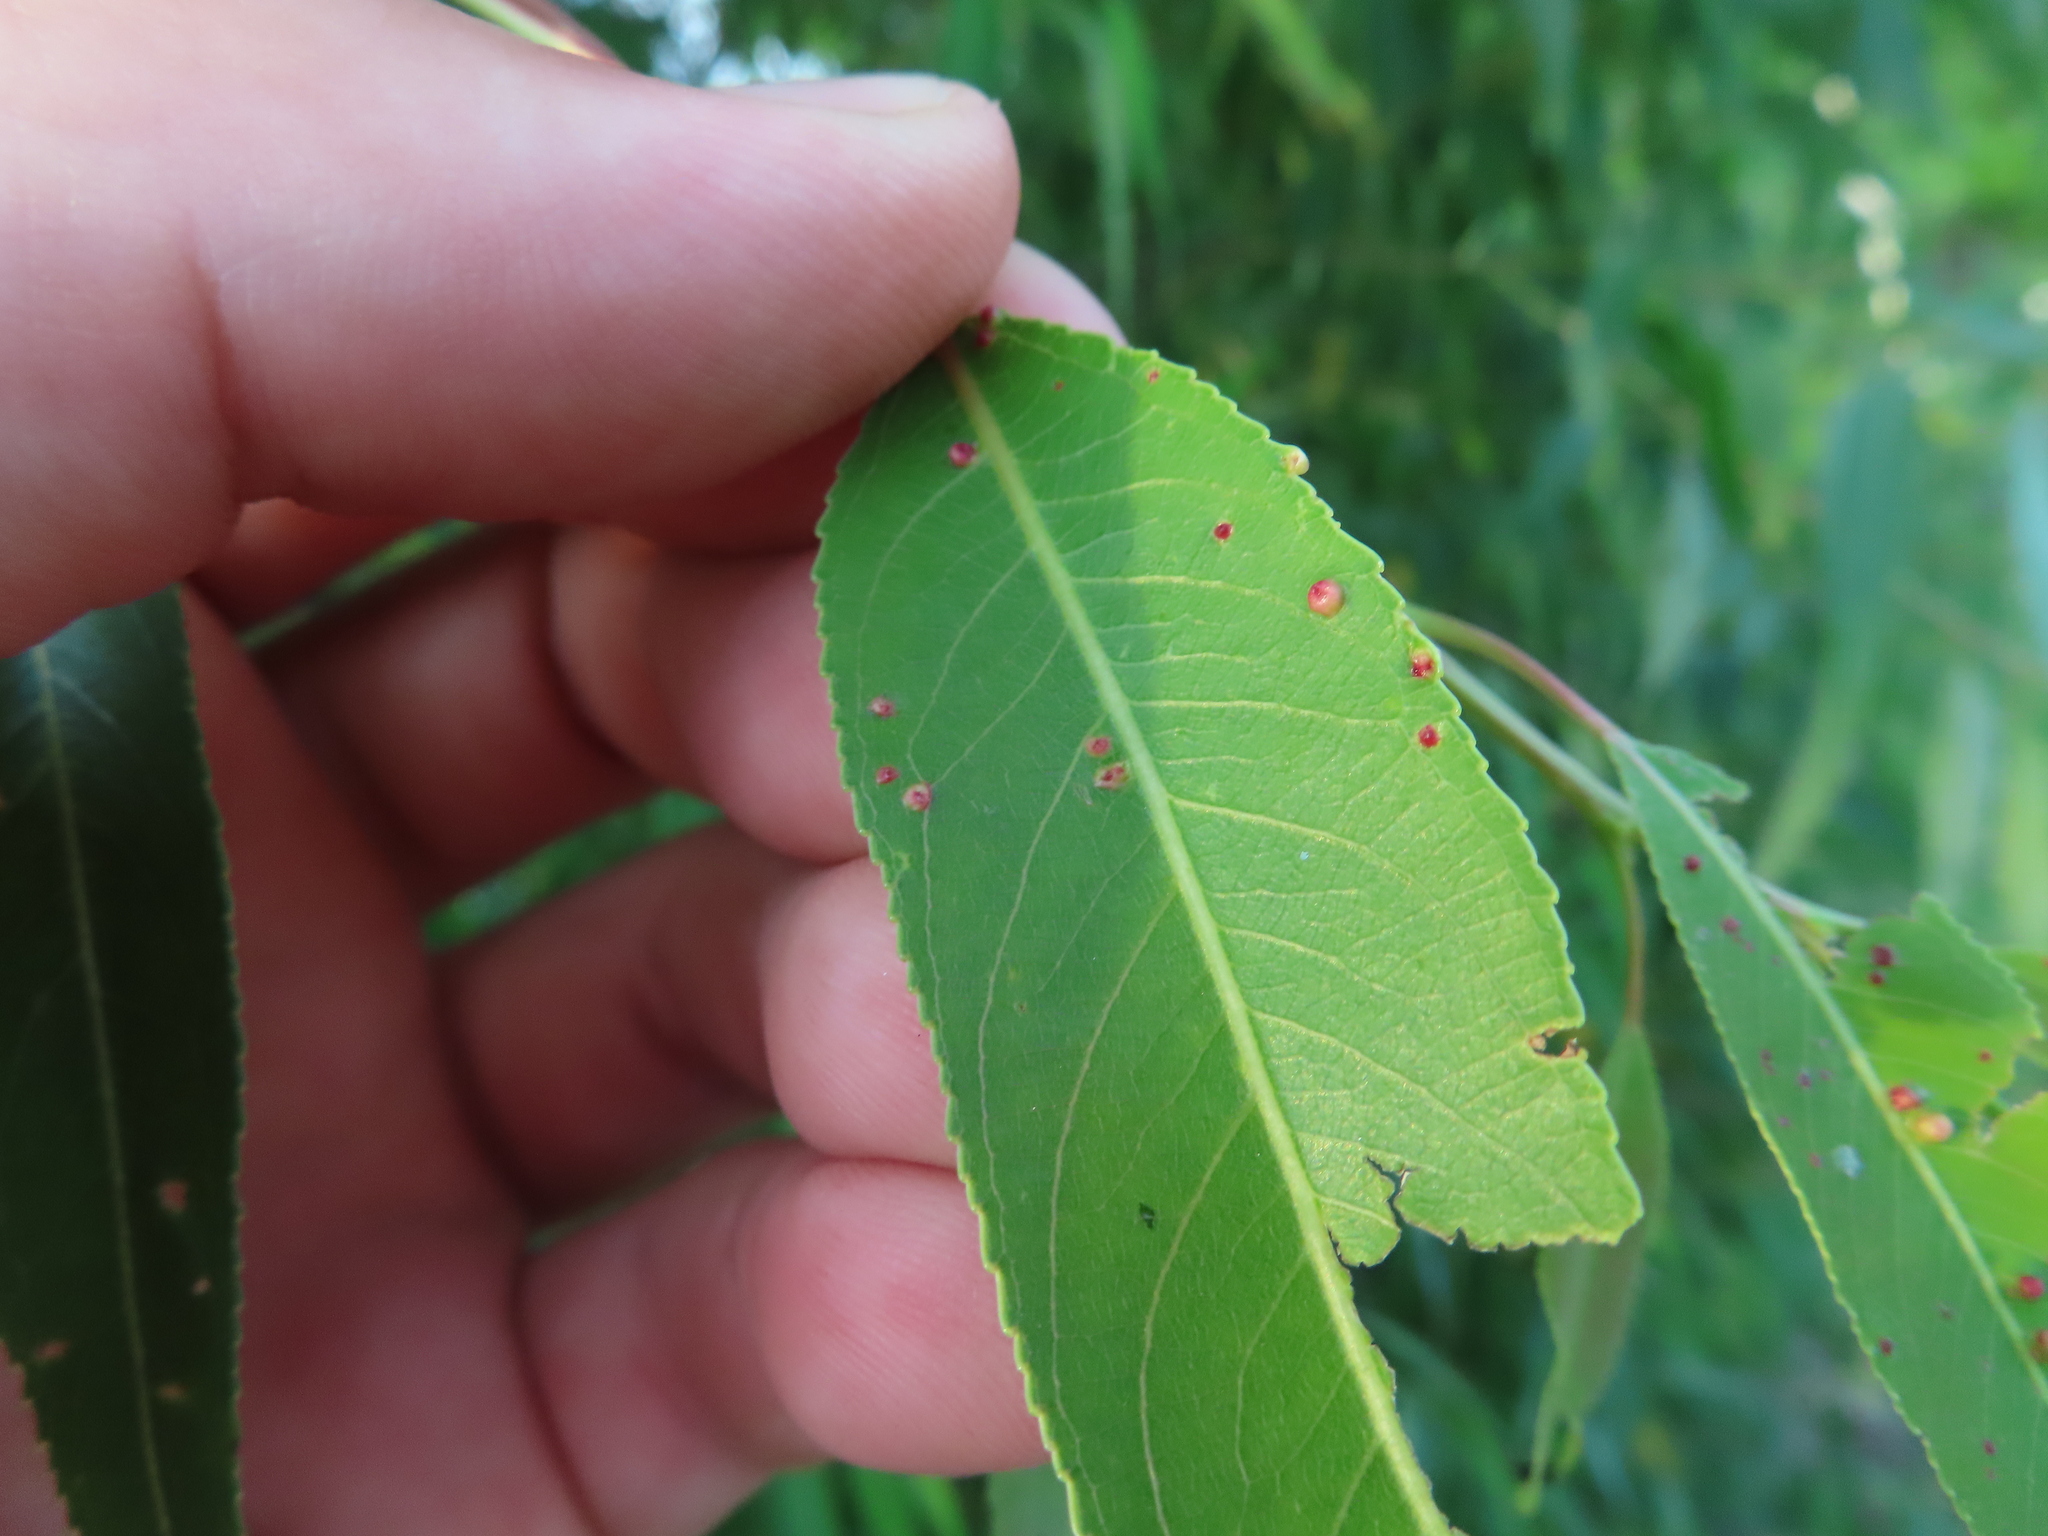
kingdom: Animalia
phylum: Arthropoda
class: Arachnida
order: Trombidiformes
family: Eriophyidae
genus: Aculus
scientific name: Aculus tetanothrix
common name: Willow bead gall mite
